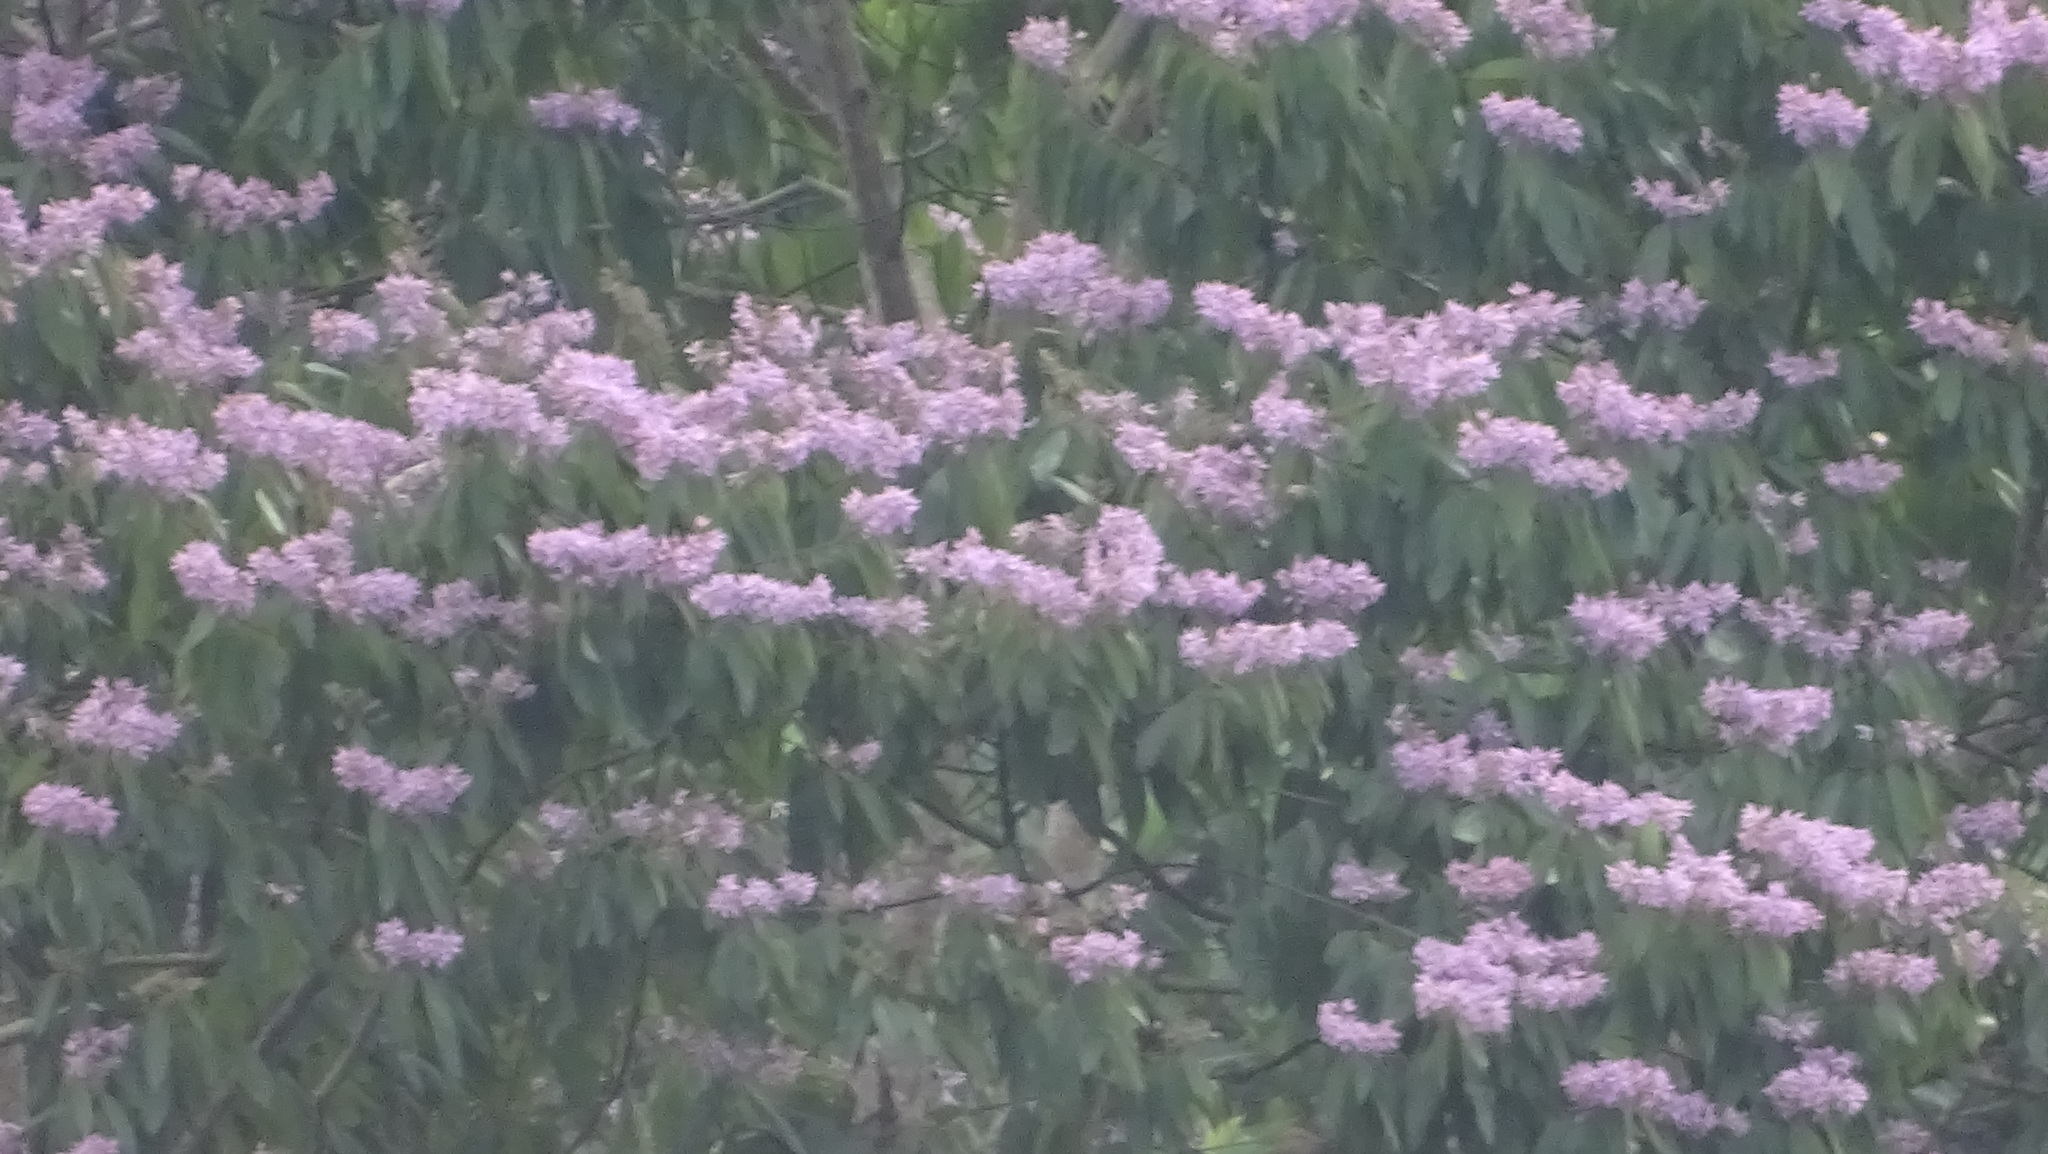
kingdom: Plantae
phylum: Tracheophyta
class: Magnoliopsida
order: Malvales
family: Malvaceae
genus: Trichospermum
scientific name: Trichospermum galeottii
